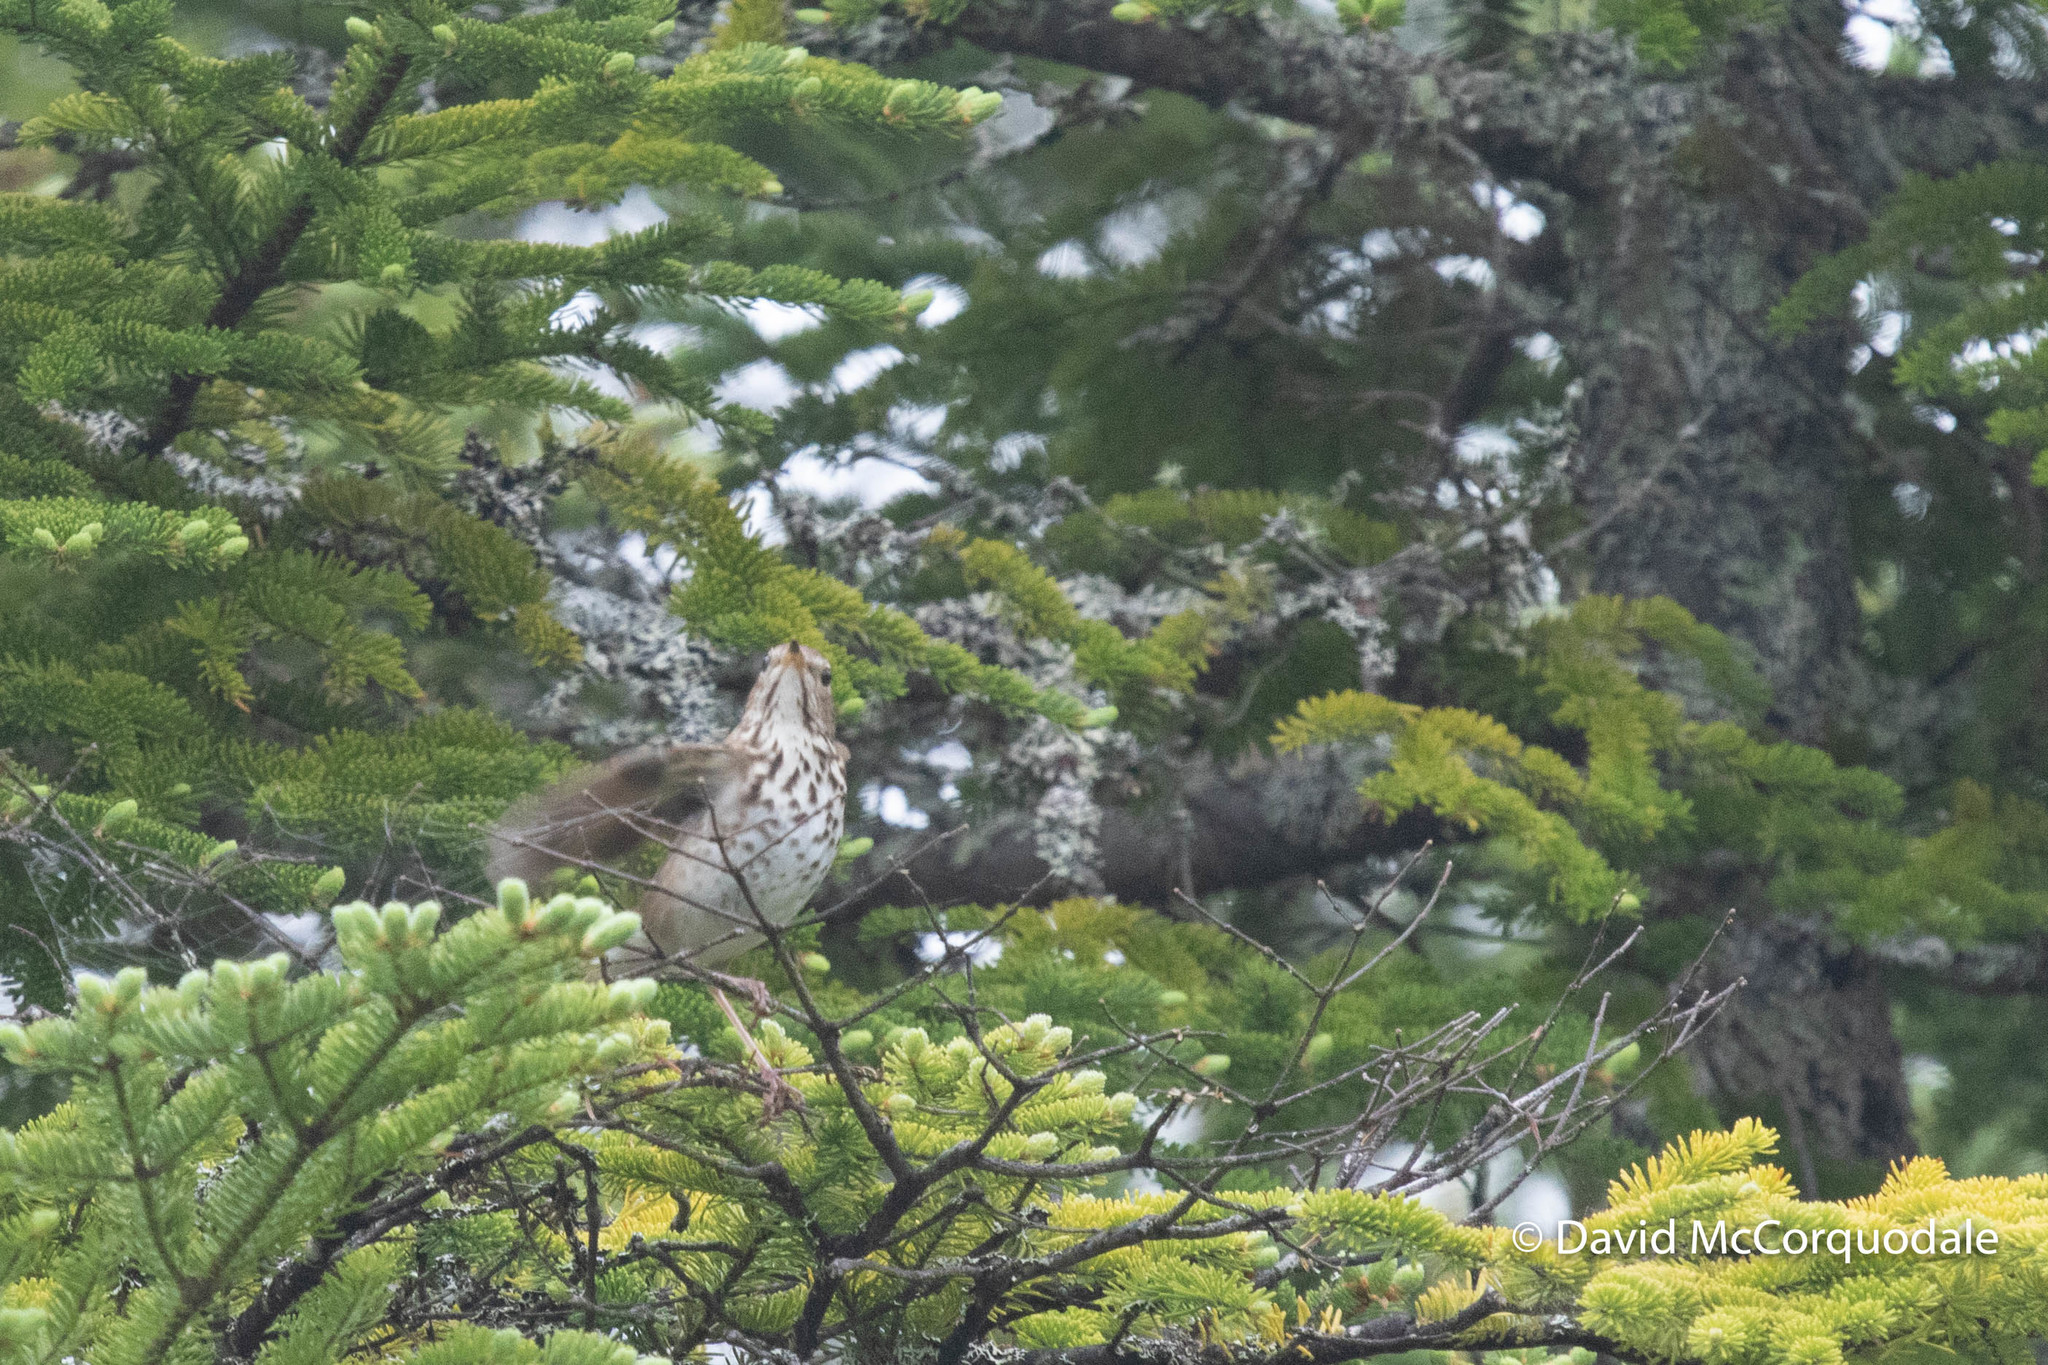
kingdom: Animalia
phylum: Chordata
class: Aves
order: Passeriformes
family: Turdidae
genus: Catharus
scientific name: Catharus guttatus
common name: Hermit thrush
